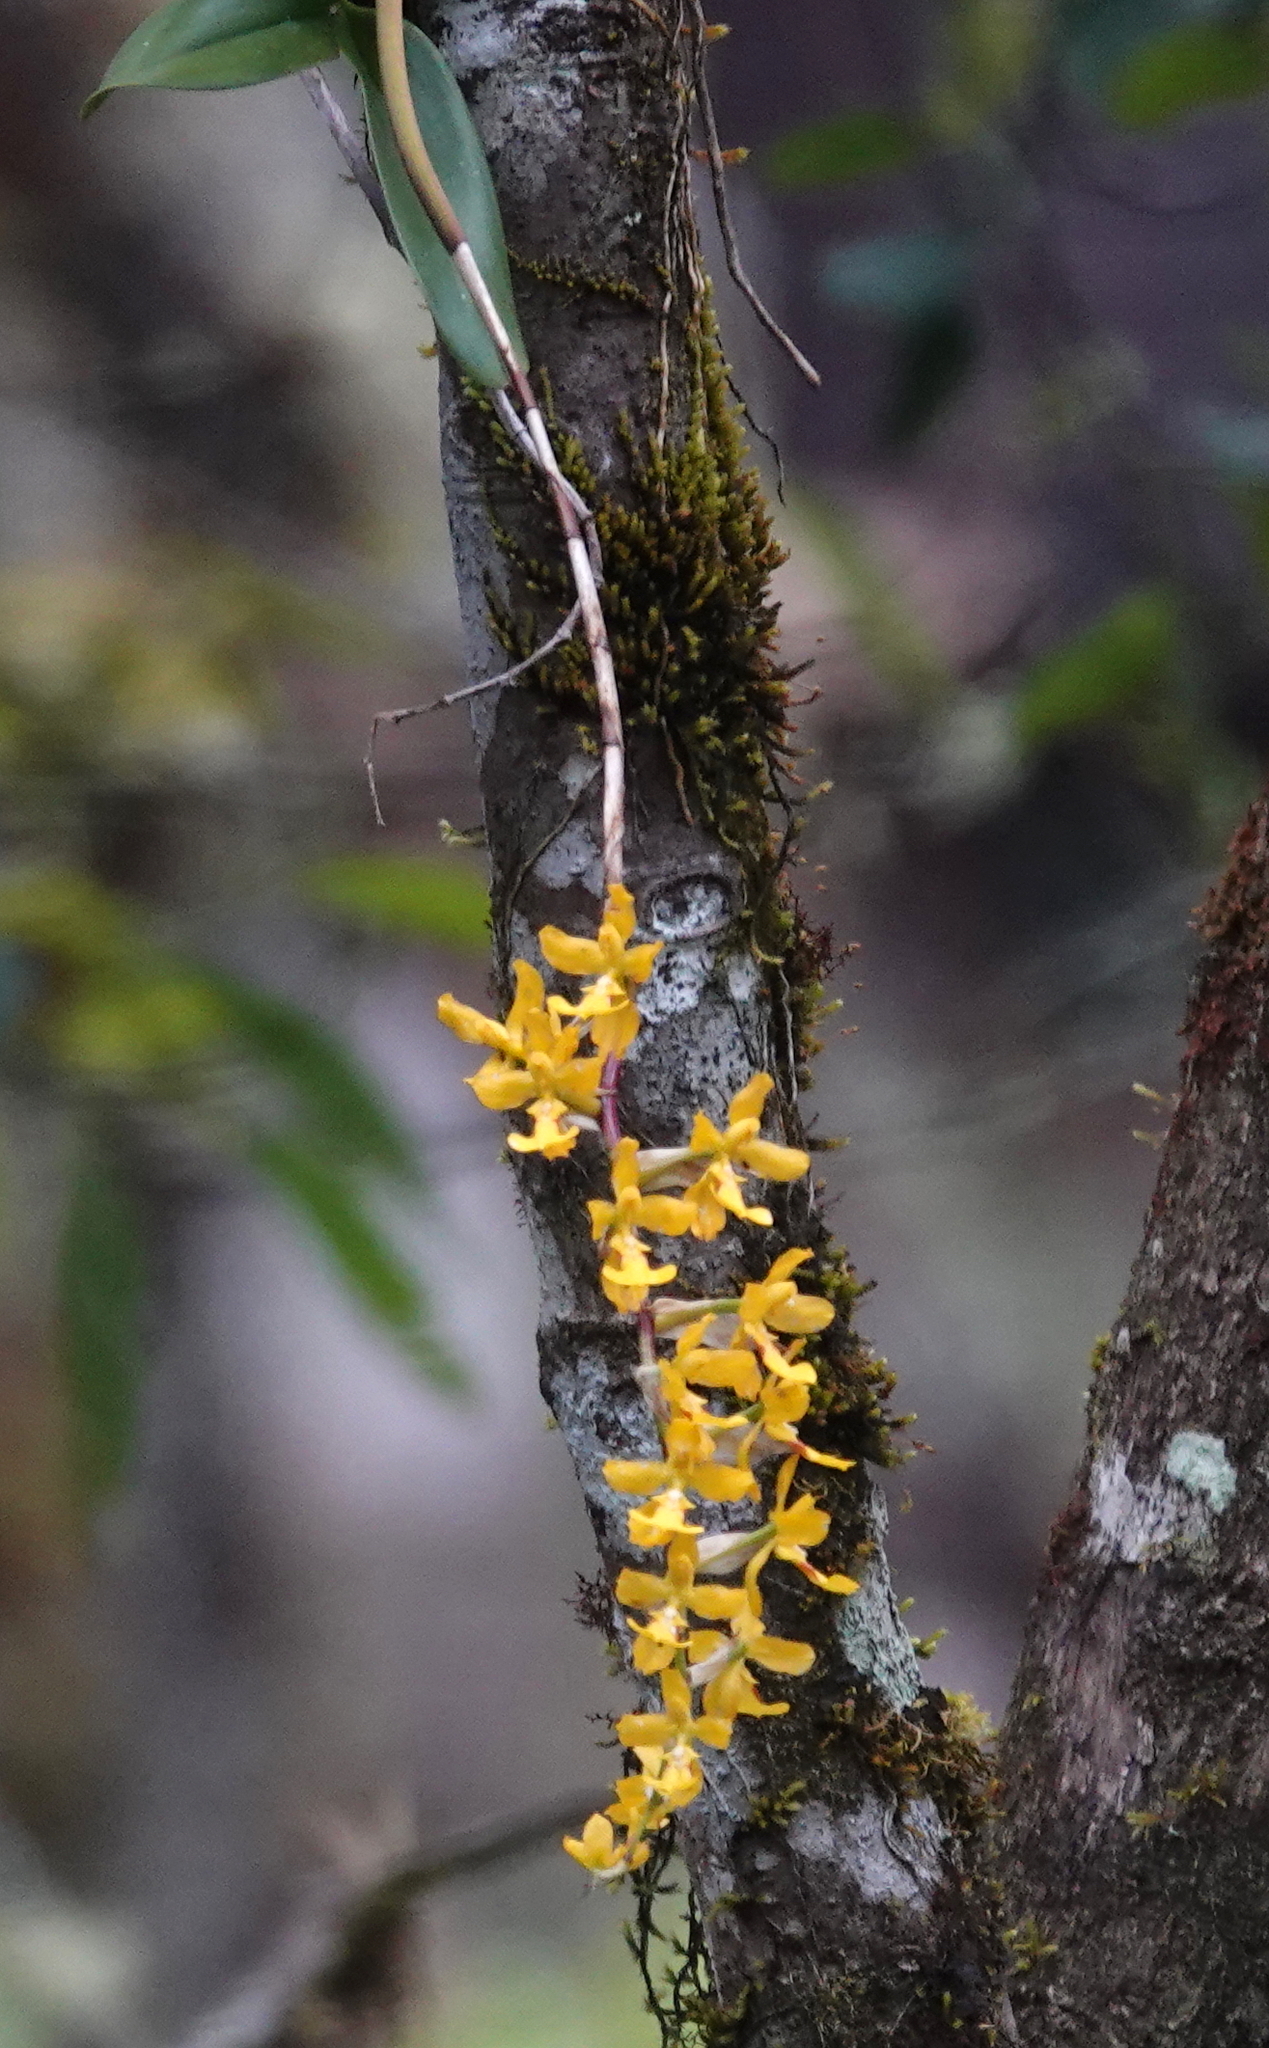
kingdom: Plantae
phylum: Tracheophyta
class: Liliopsida
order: Asparagales
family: Orchidaceae
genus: Oncidium
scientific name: Oncidium warszewiczii
